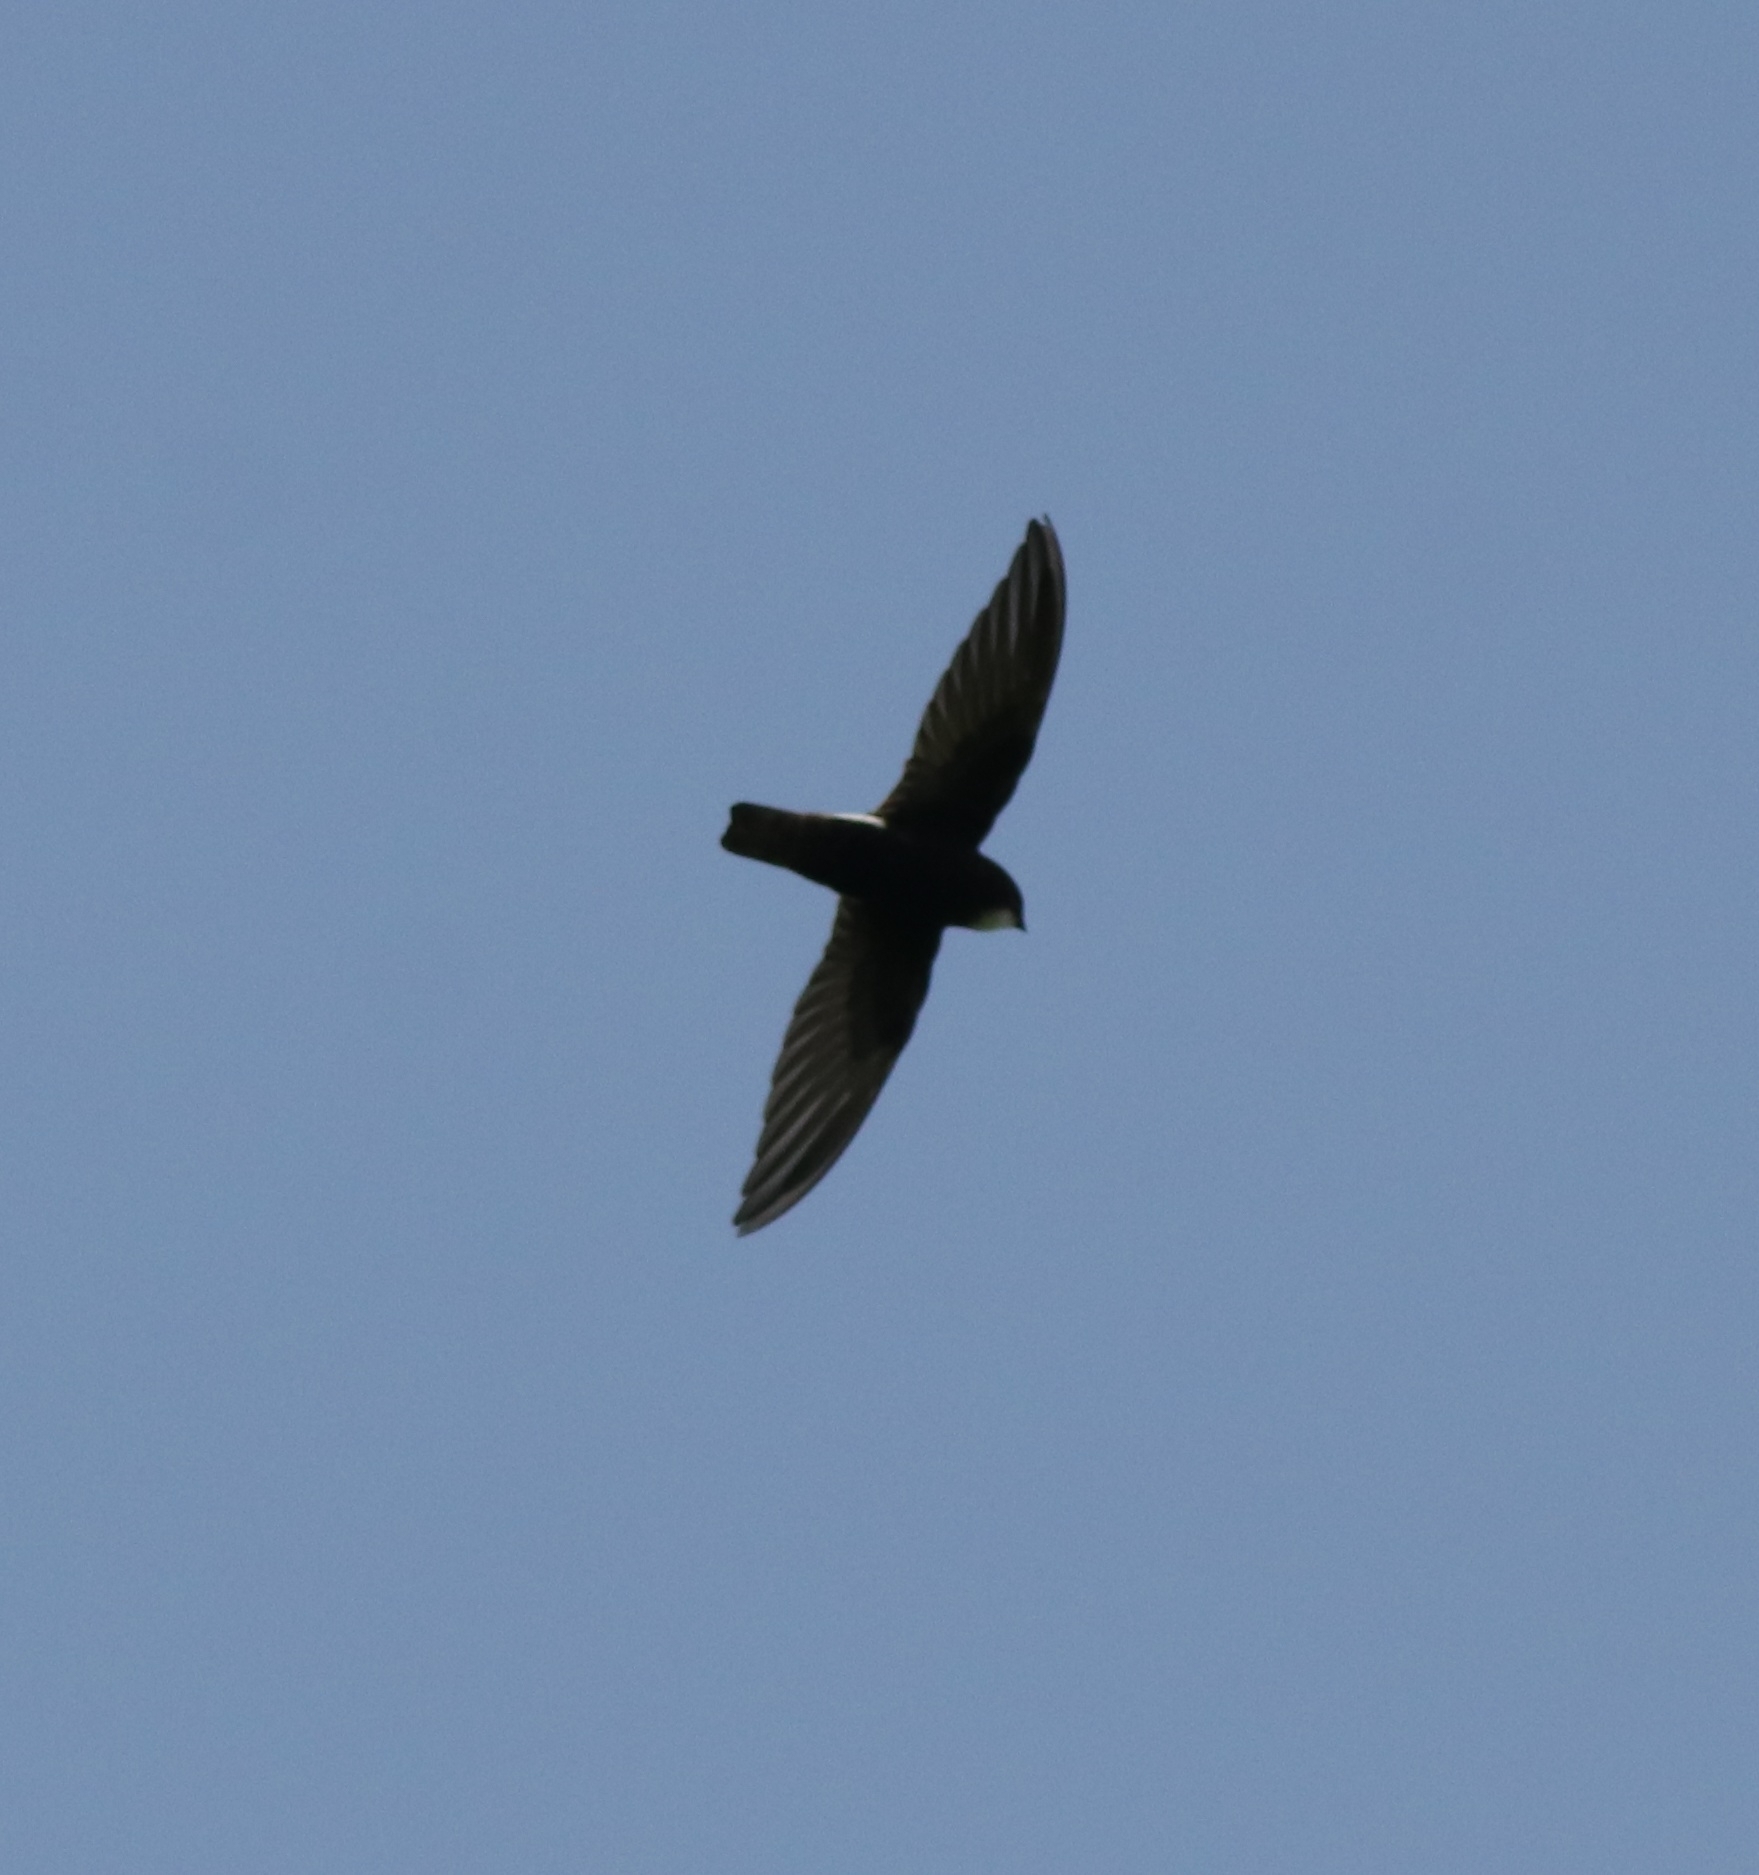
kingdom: Animalia
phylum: Chordata
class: Aves
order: Apodiformes
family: Apodidae
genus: Apus
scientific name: Apus affinis
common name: Little swift
